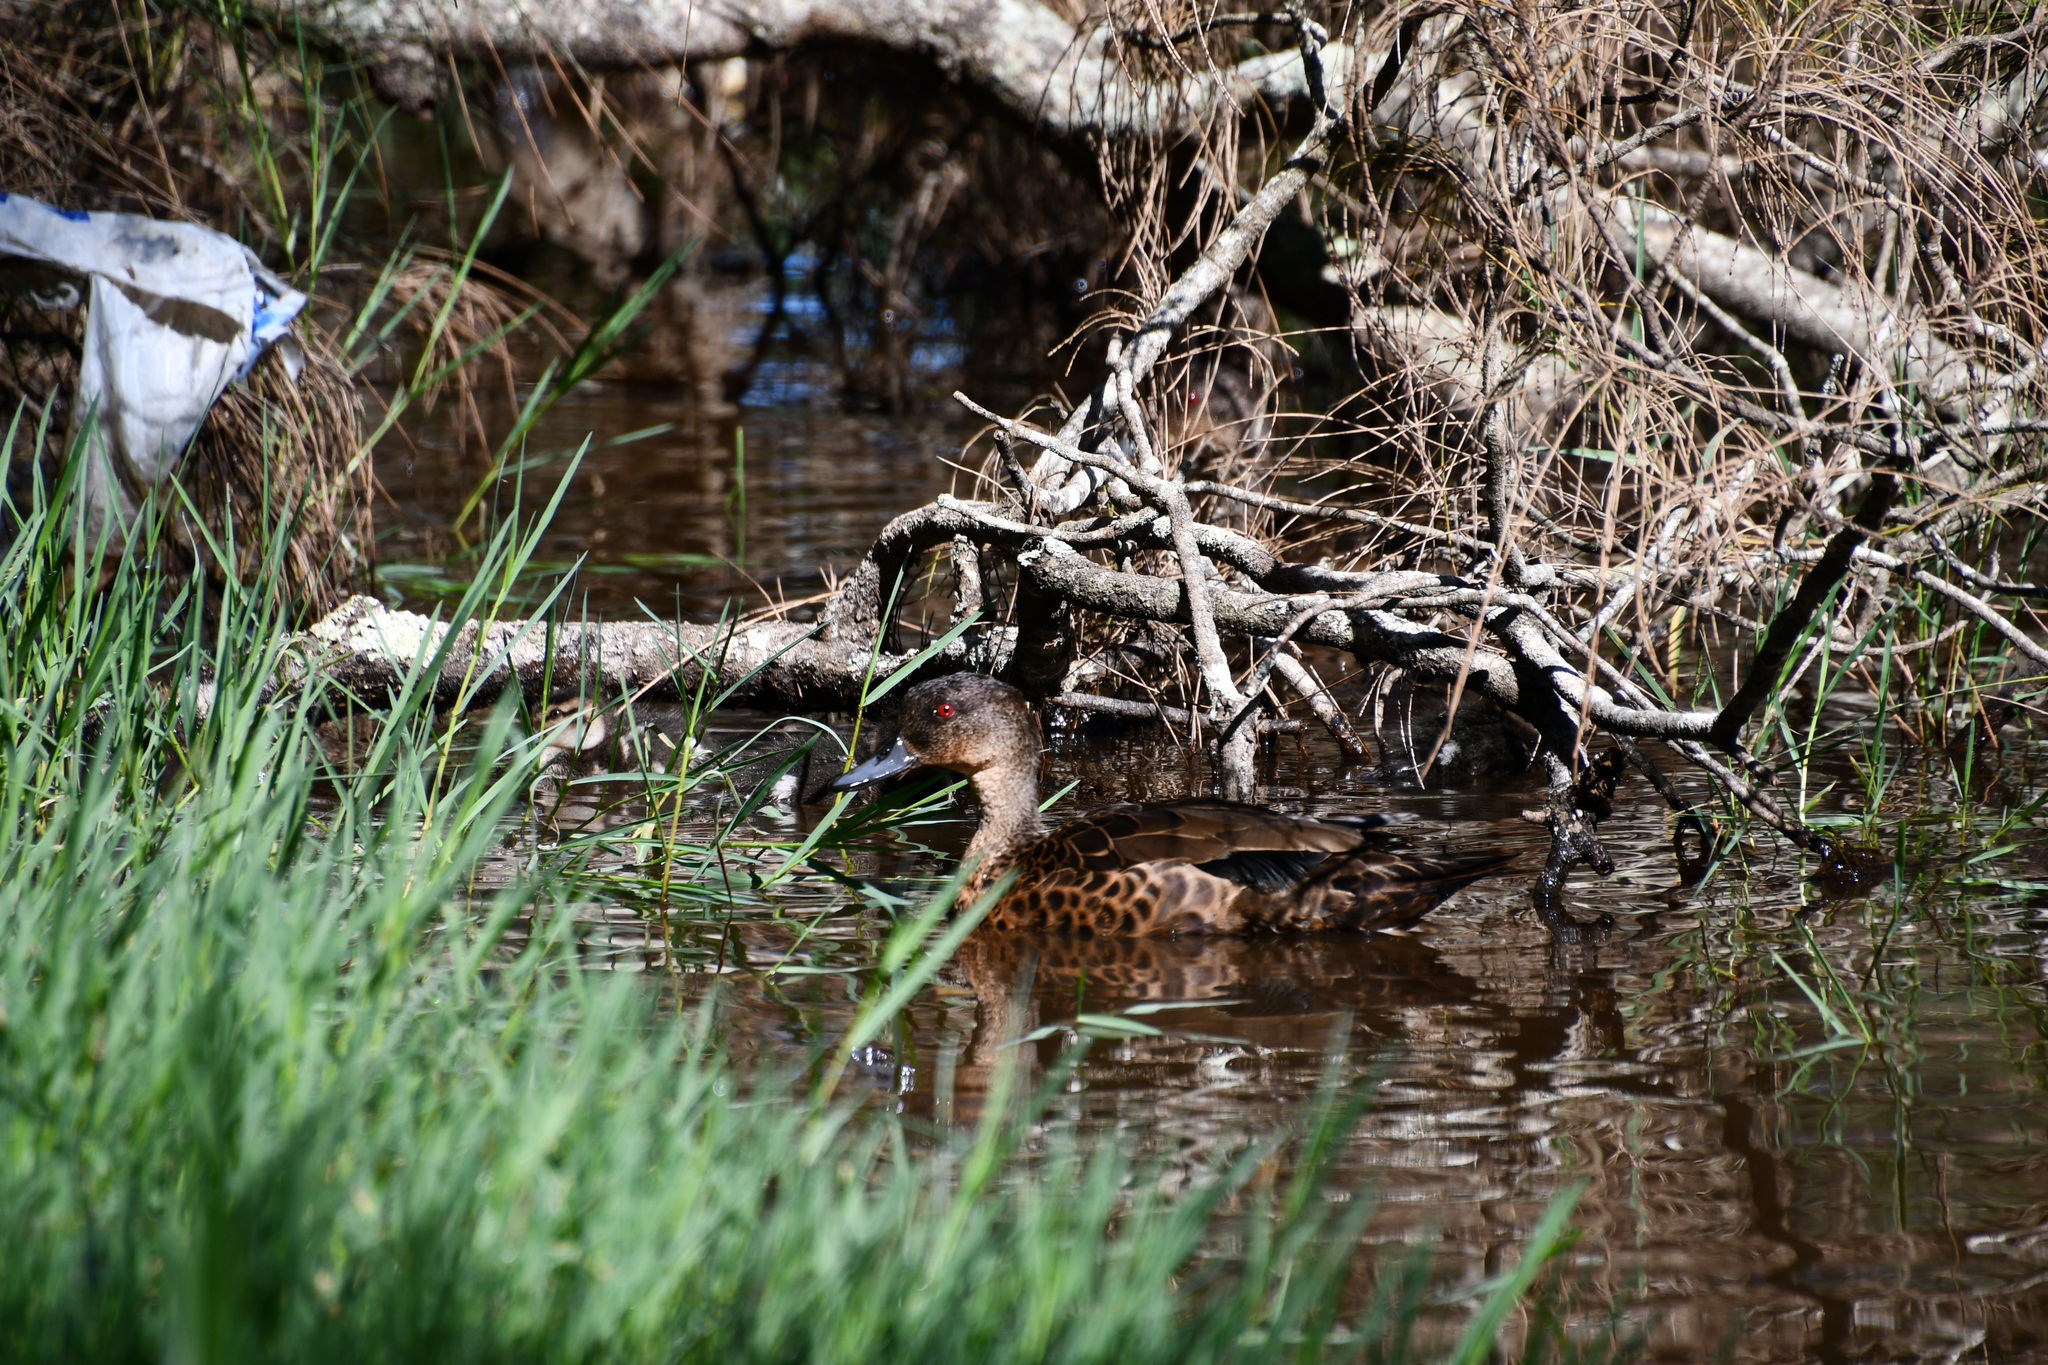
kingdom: Animalia
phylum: Chordata
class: Aves
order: Anseriformes
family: Anatidae
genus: Anas
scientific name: Anas castanea
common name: Chestnut teal
